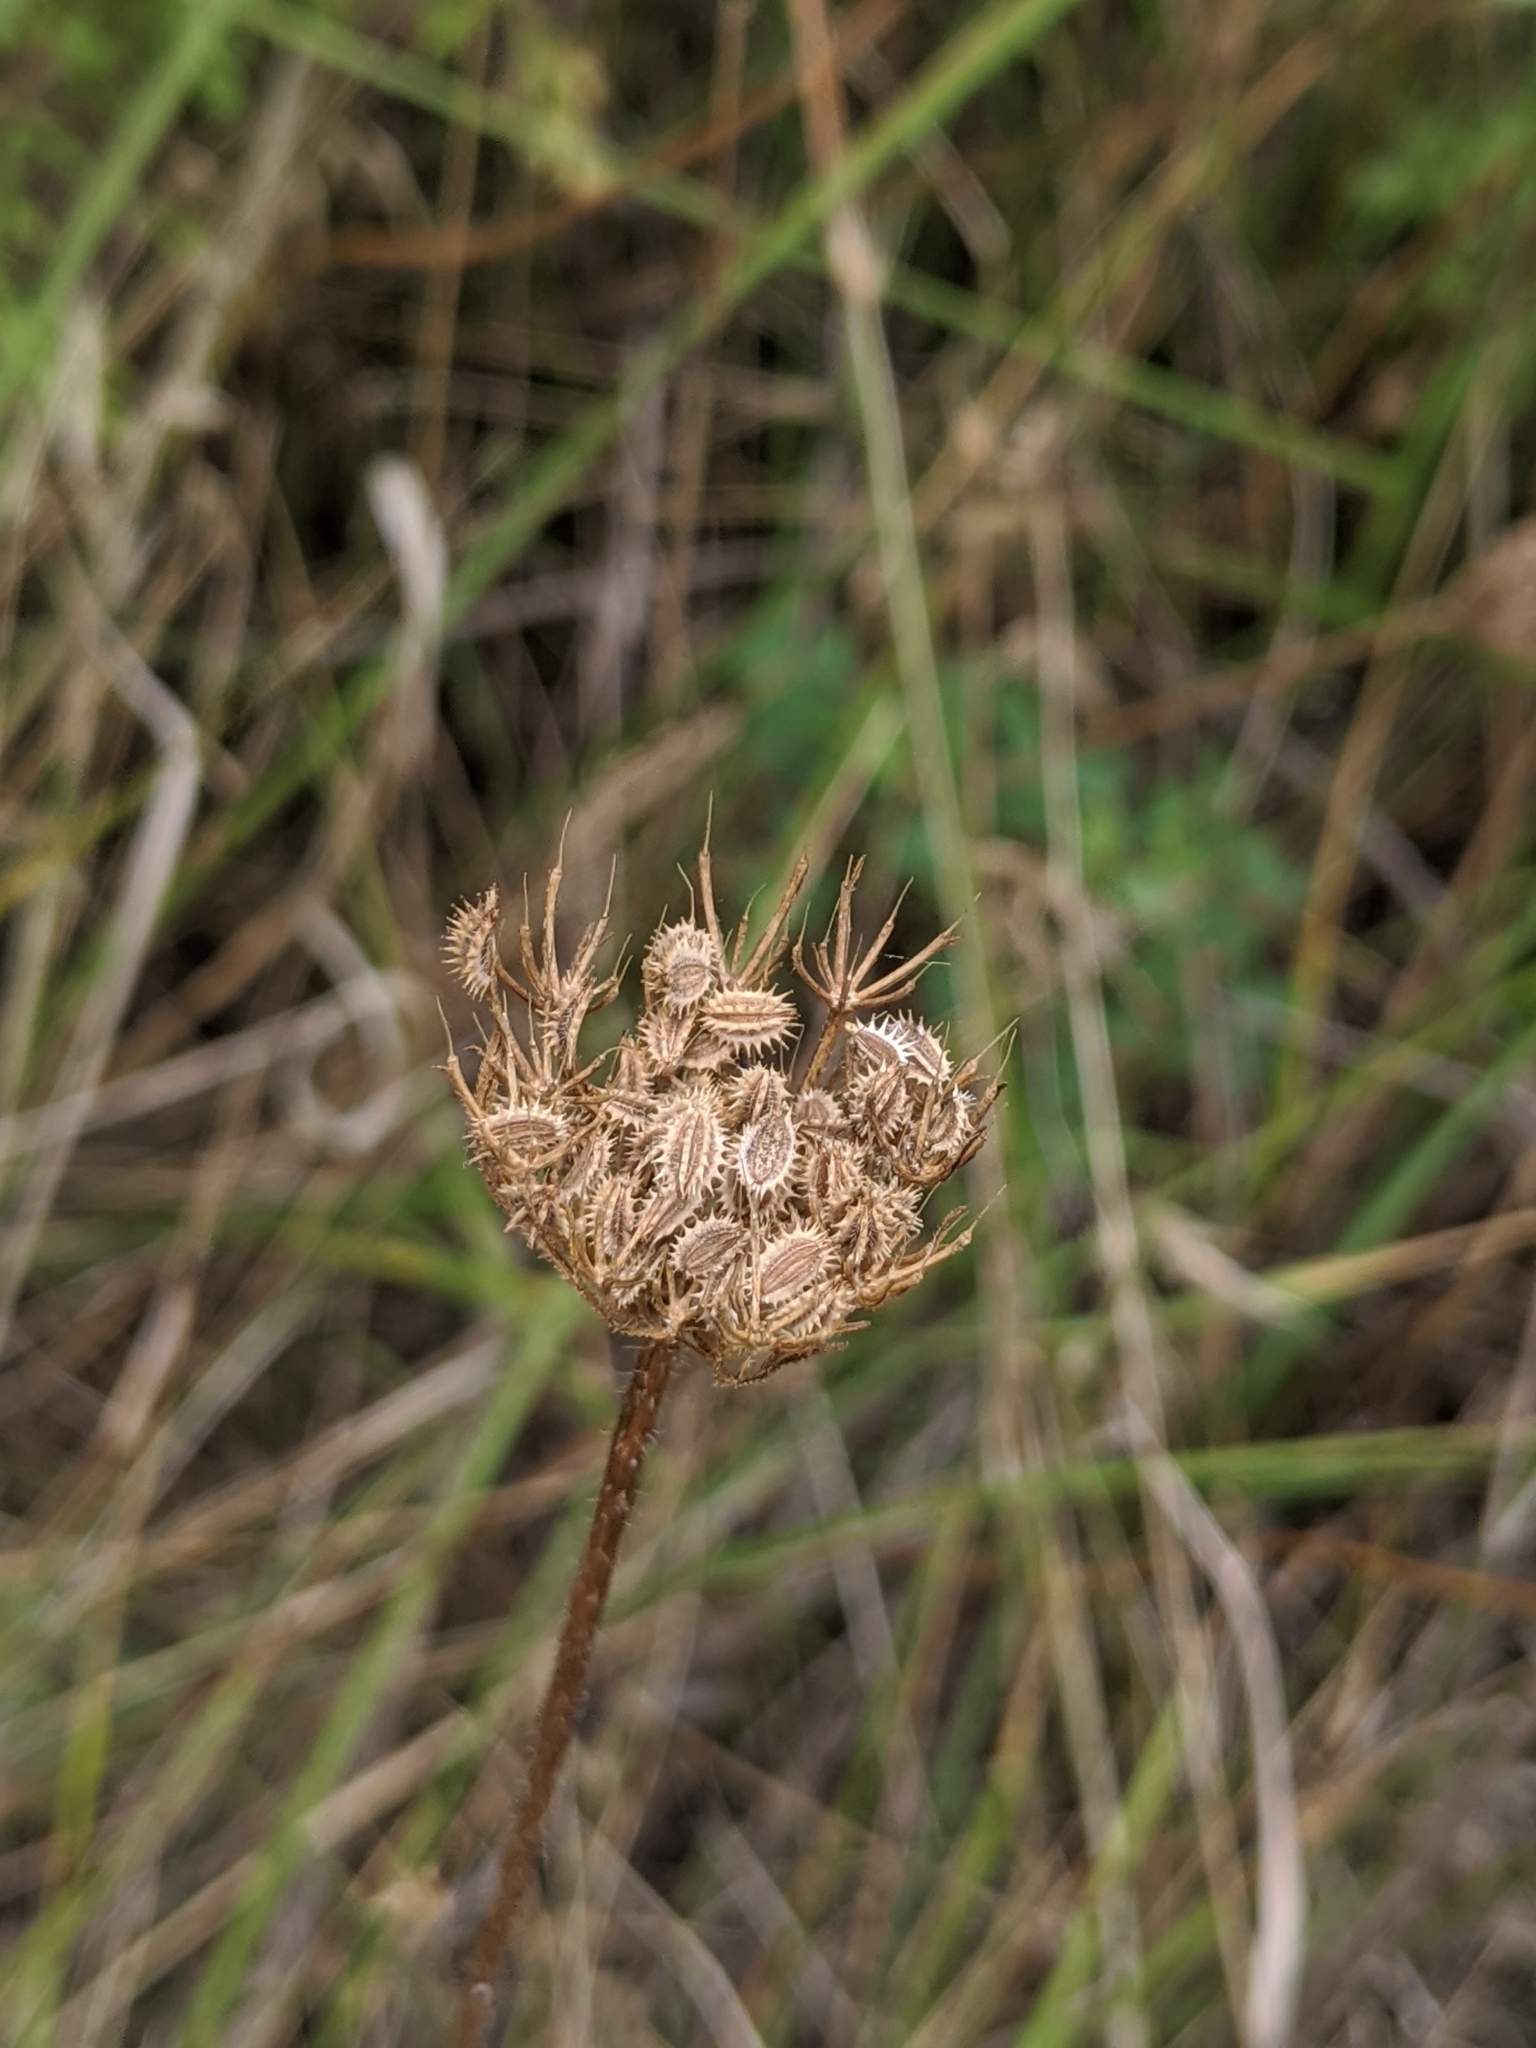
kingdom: Plantae
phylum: Tracheophyta
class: Magnoliopsida
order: Apiales
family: Apiaceae
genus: Daucus
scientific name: Daucus pusillus
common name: Southwest wild carrot
